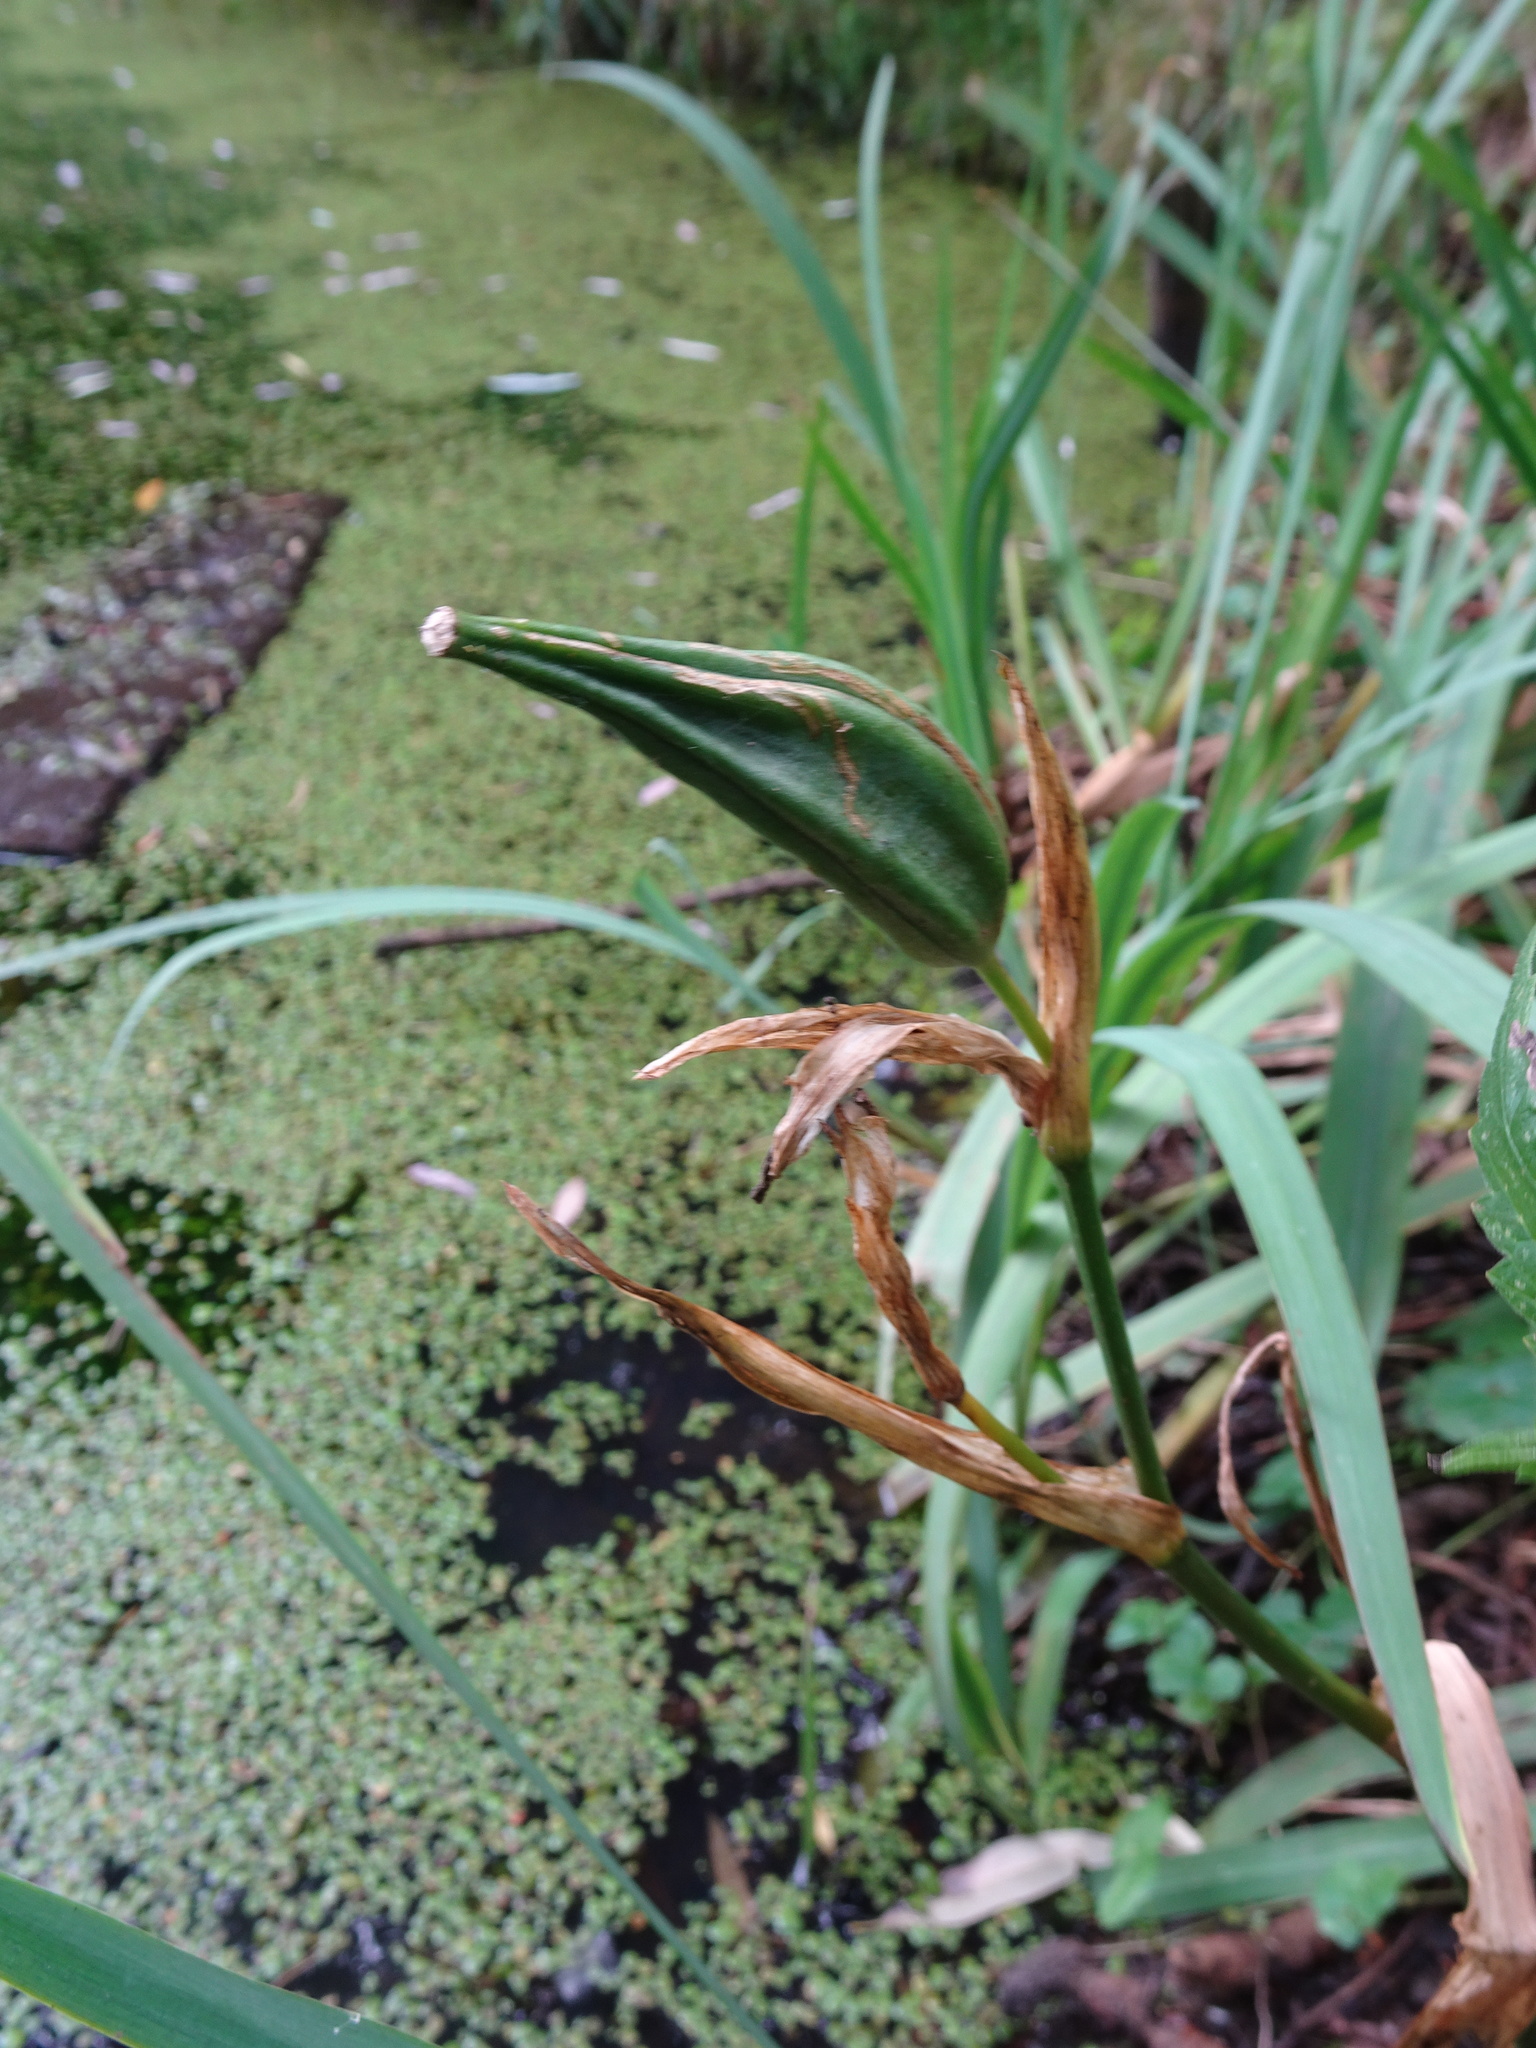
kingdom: Plantae
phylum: Tracheophyta
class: Liliopsida
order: Asparagales
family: Iridaceae
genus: Iris
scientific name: Iris pseudacorus
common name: Yellow flag
